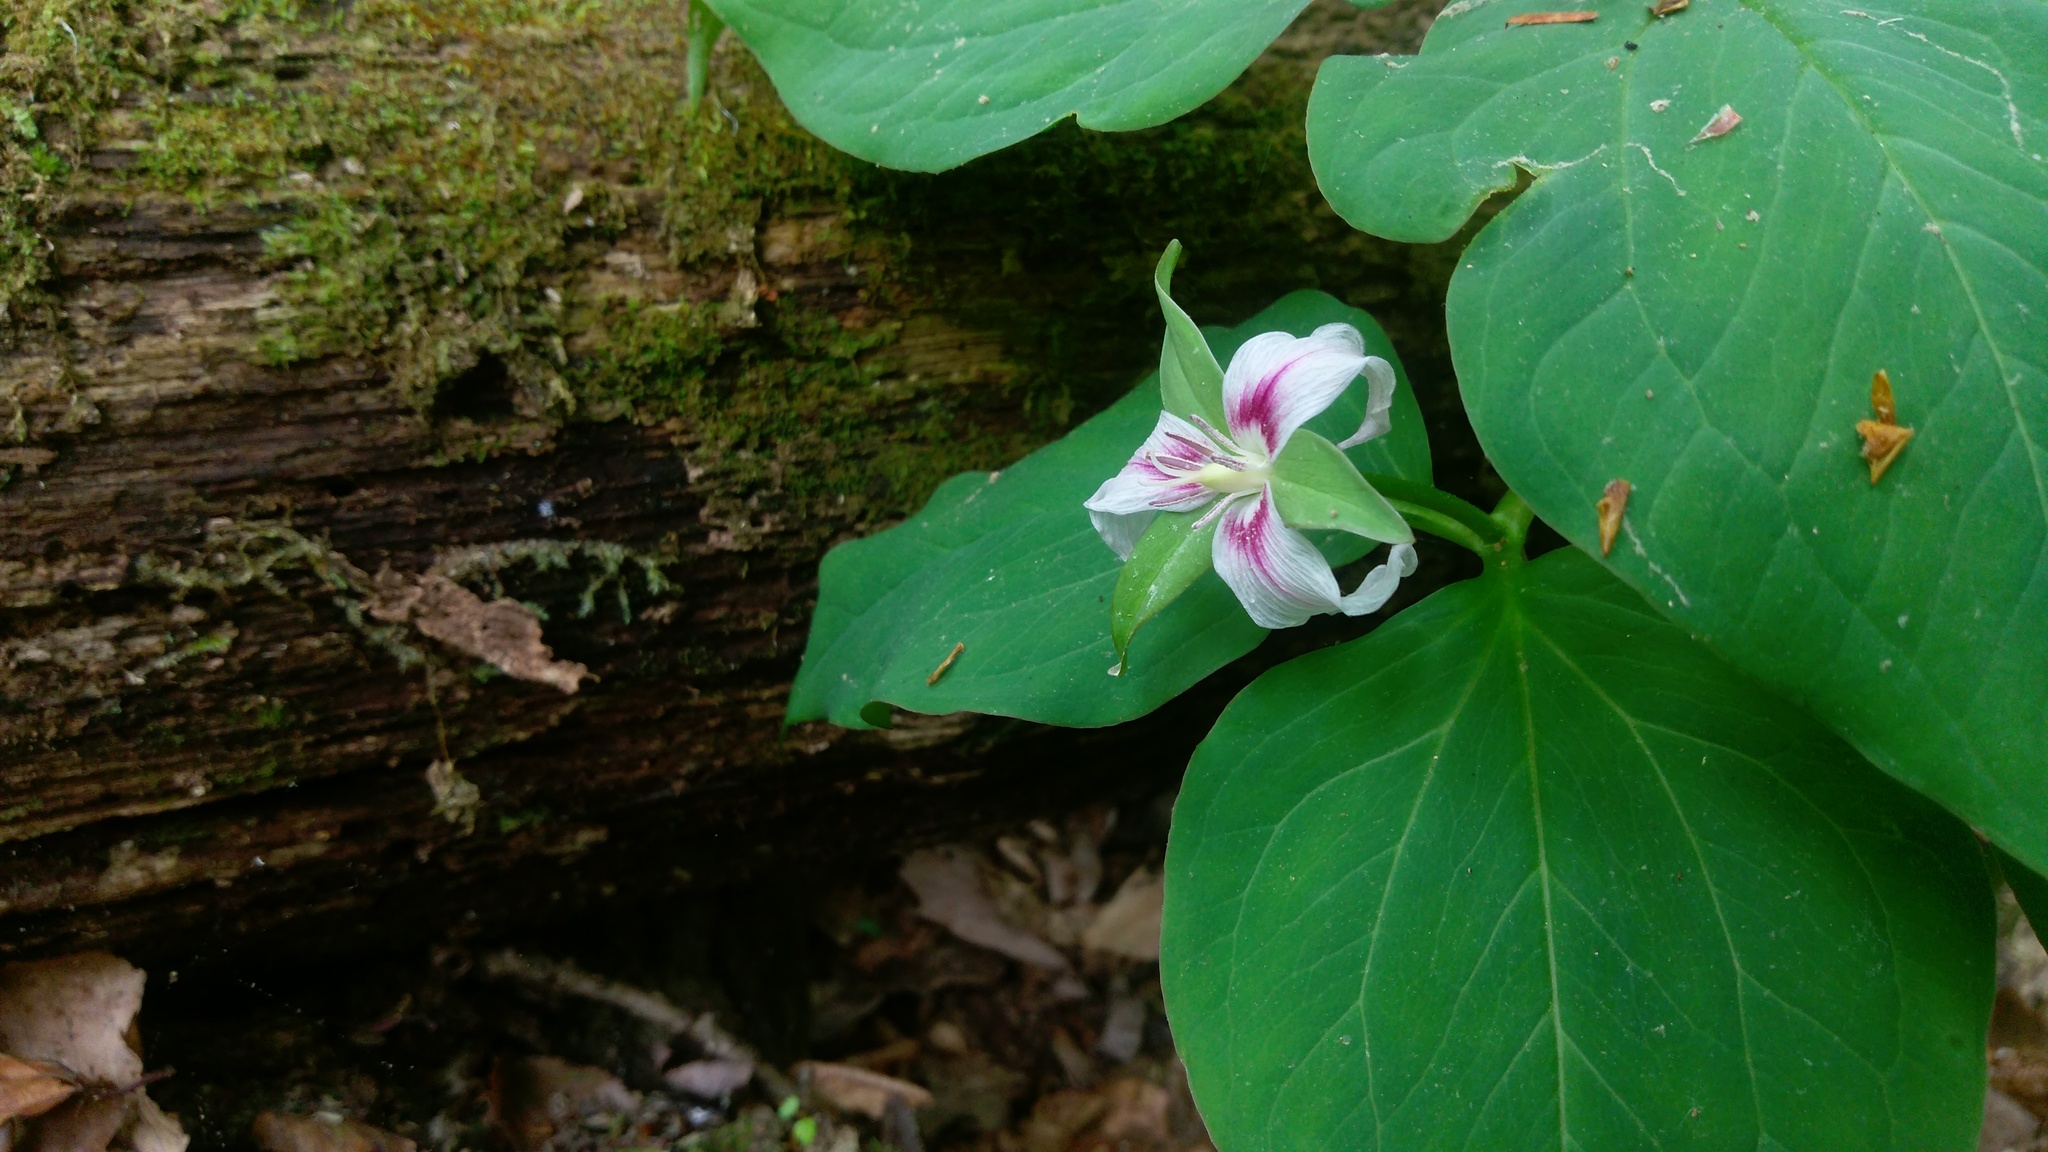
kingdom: Plantae
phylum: Tracheophyta
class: Liliopsida
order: Liliales
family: Melanthiaceae
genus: Trillium
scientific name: Trillium undulatum
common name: Paint trillium
